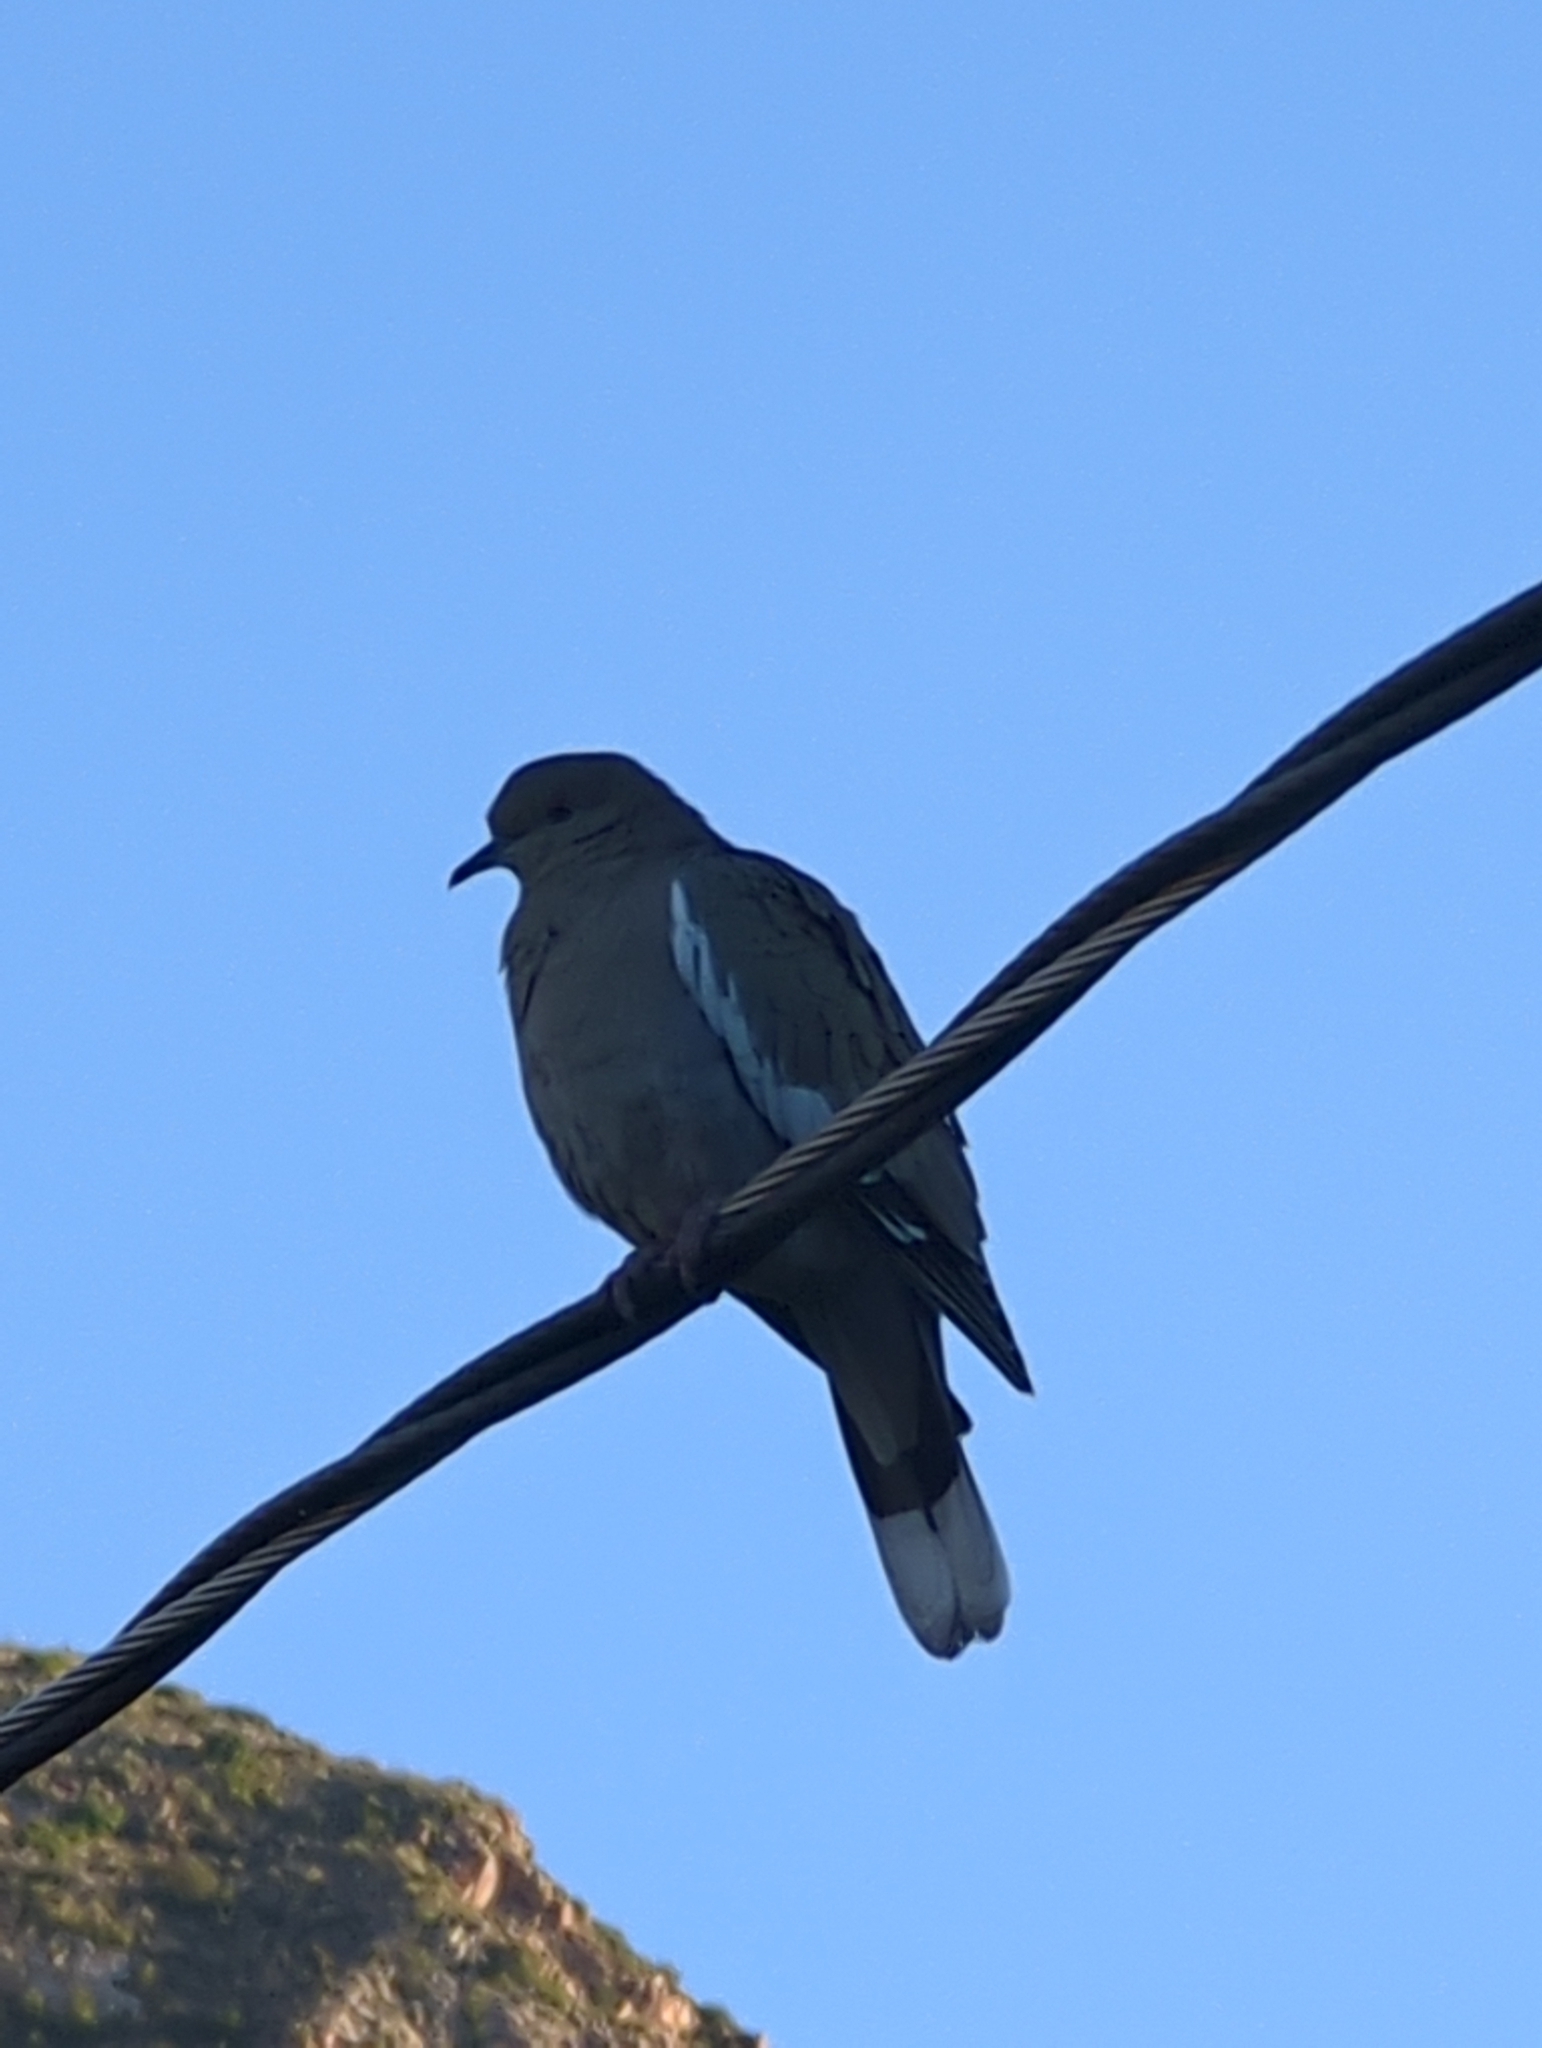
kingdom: Animalia
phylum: Chordata
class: Aves
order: Columbiformes
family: Columbidae
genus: Zenaida
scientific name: Zenaida asiatica
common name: White-winged dove
